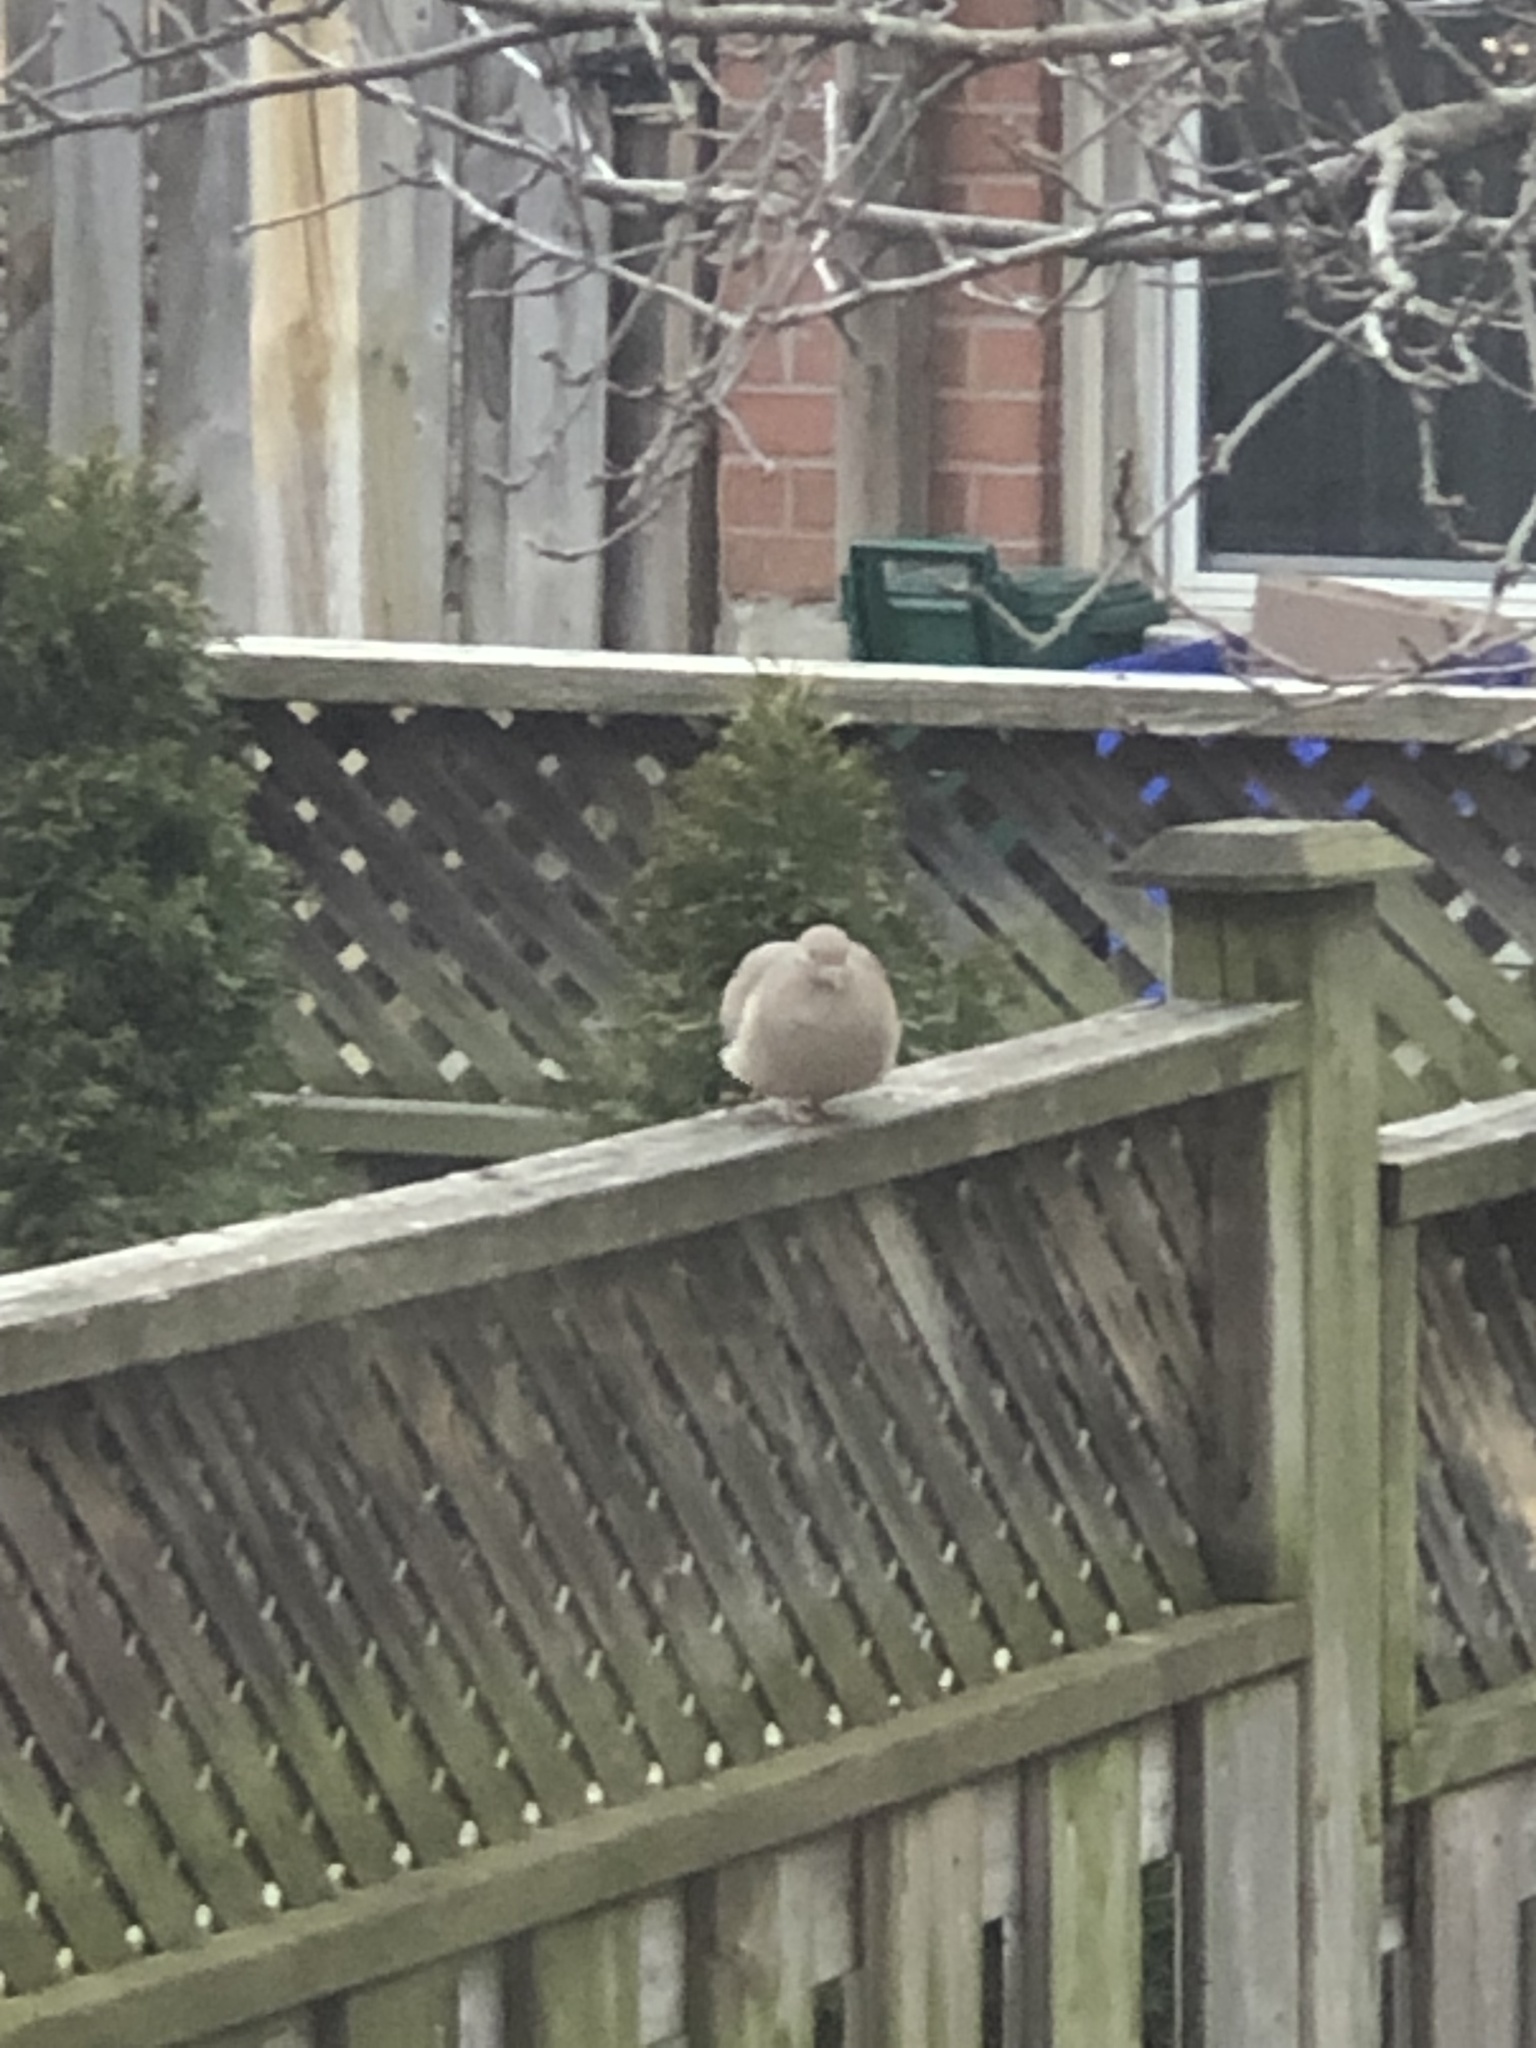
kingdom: Animalia
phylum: Chordata
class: Aves
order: Columbiformes
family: Columbidae
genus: Zenaida
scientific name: Zenaida macroura
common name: Mourning dove
